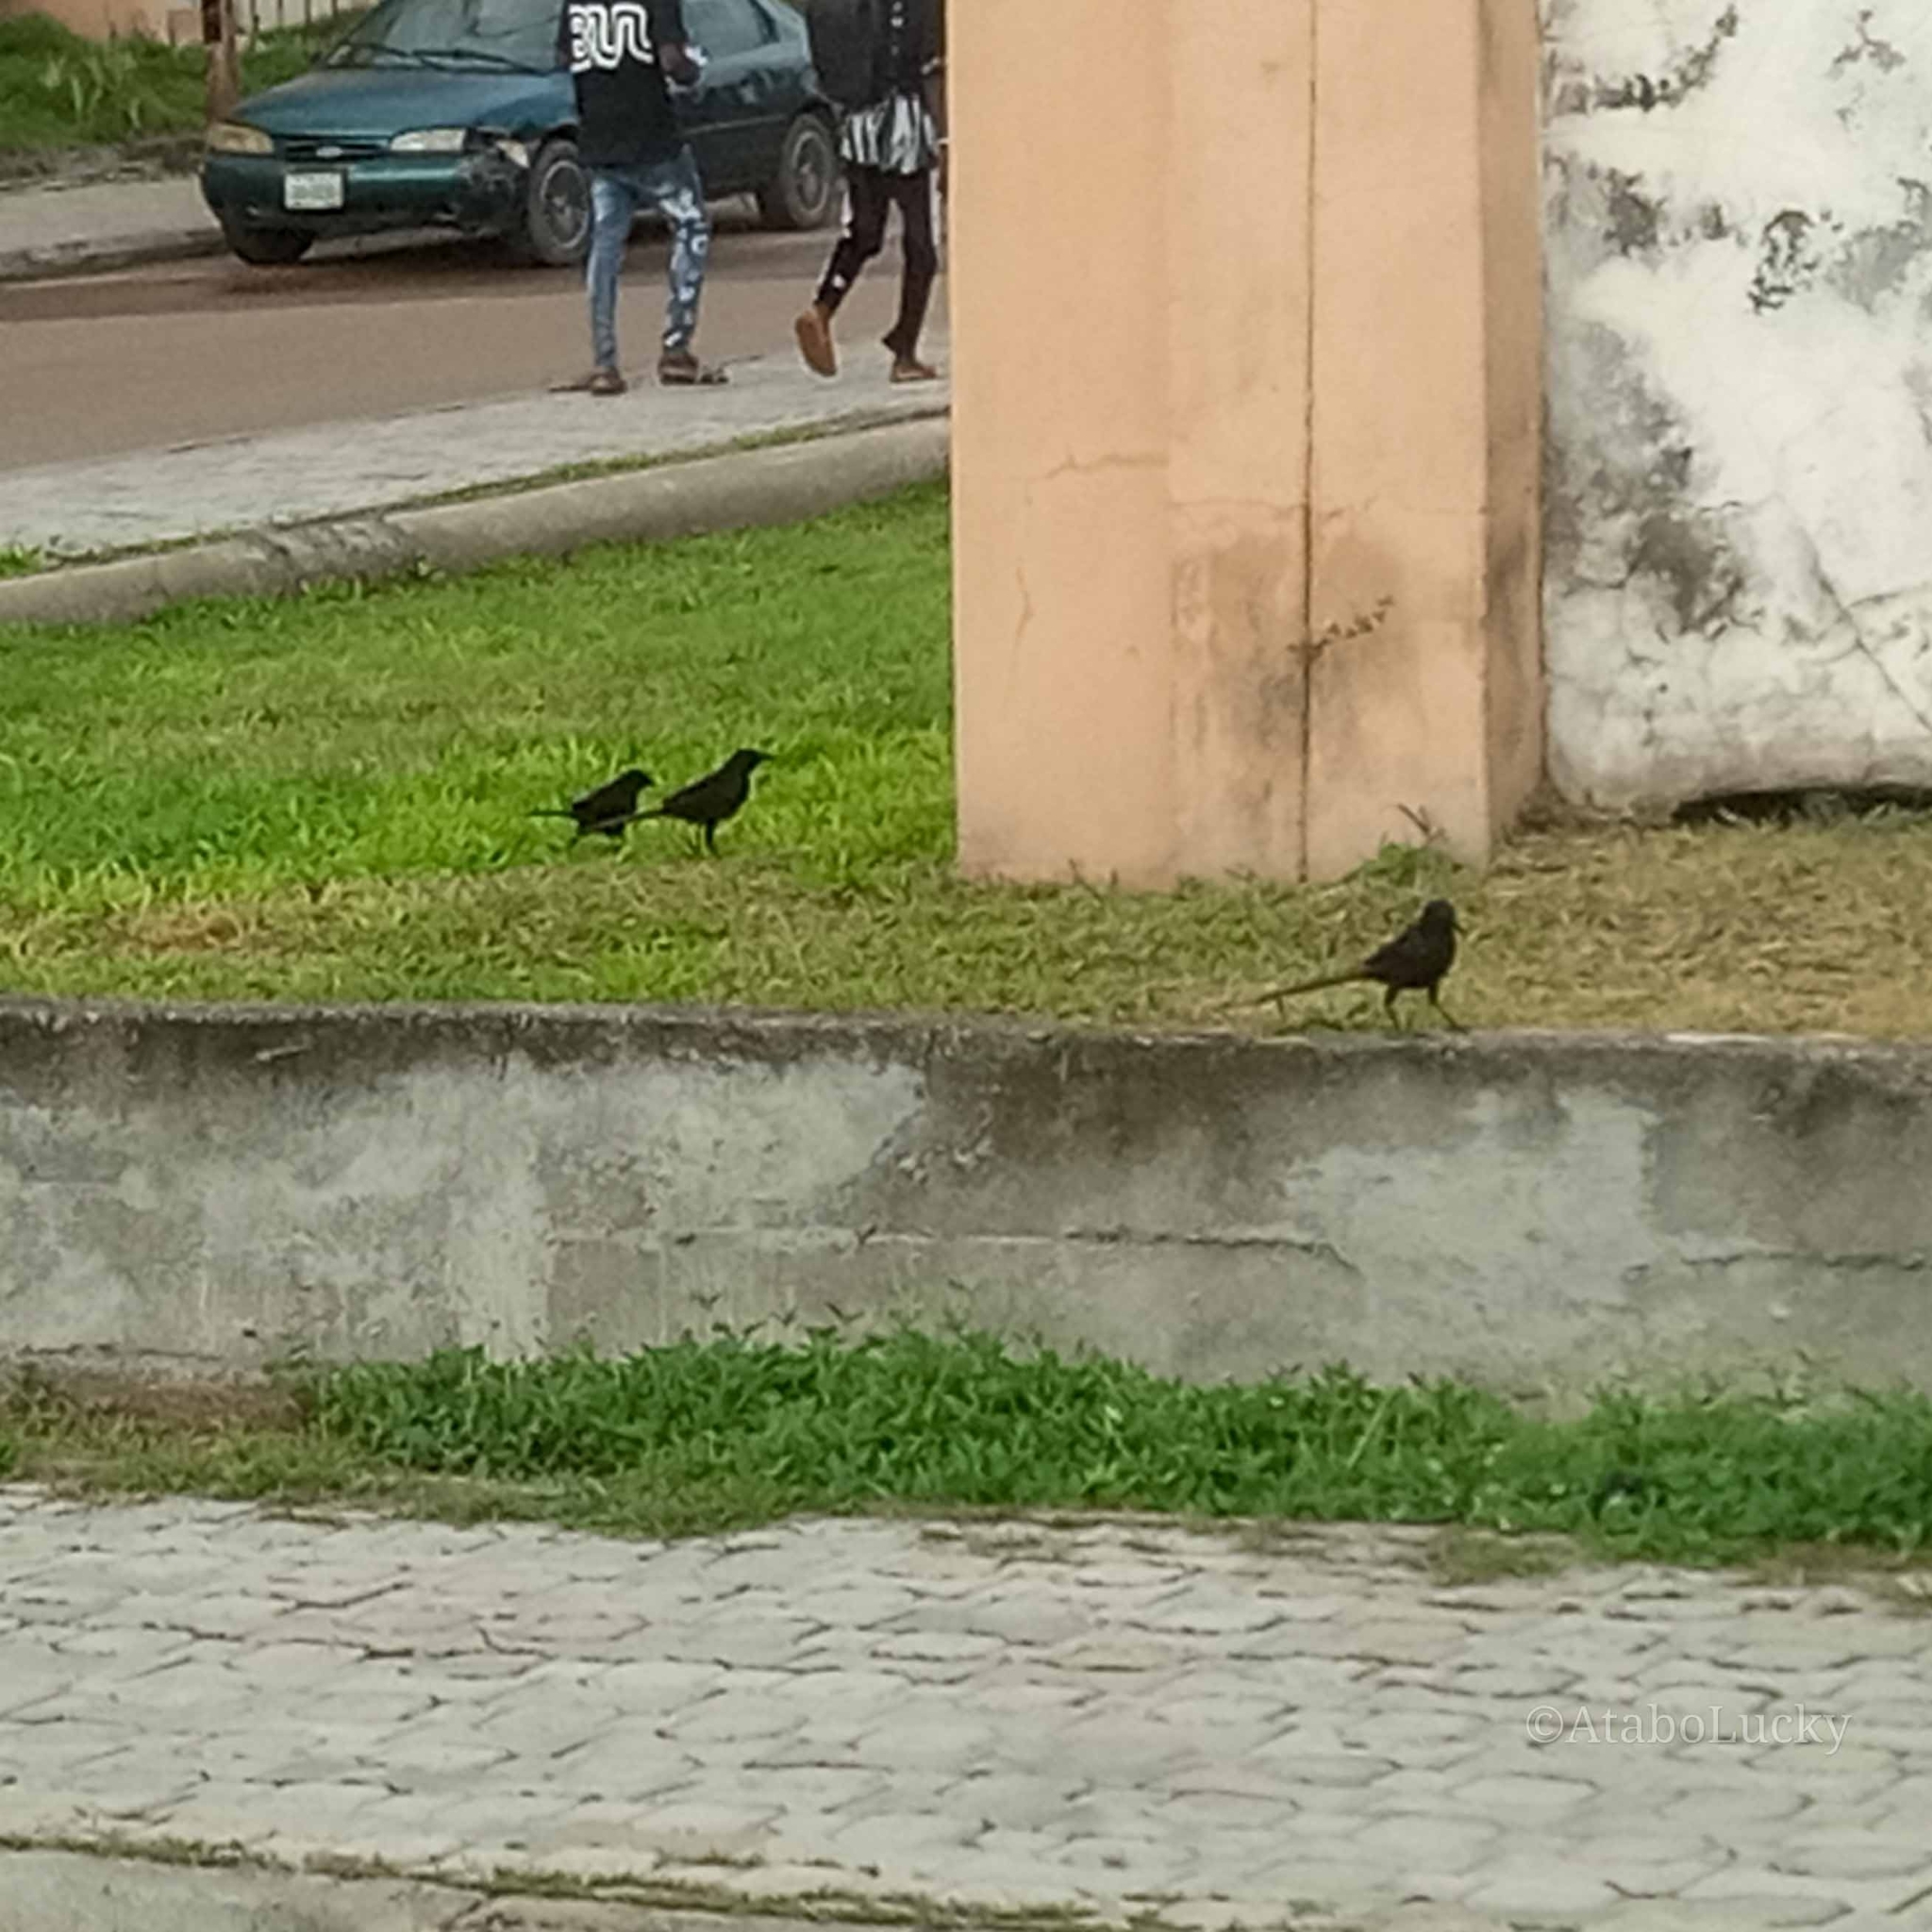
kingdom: Animalia
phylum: Chordata
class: Aves
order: Passeriformes
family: Corvidae
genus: Ptilostomus
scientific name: Ptilostomus afer
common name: Piapiac
